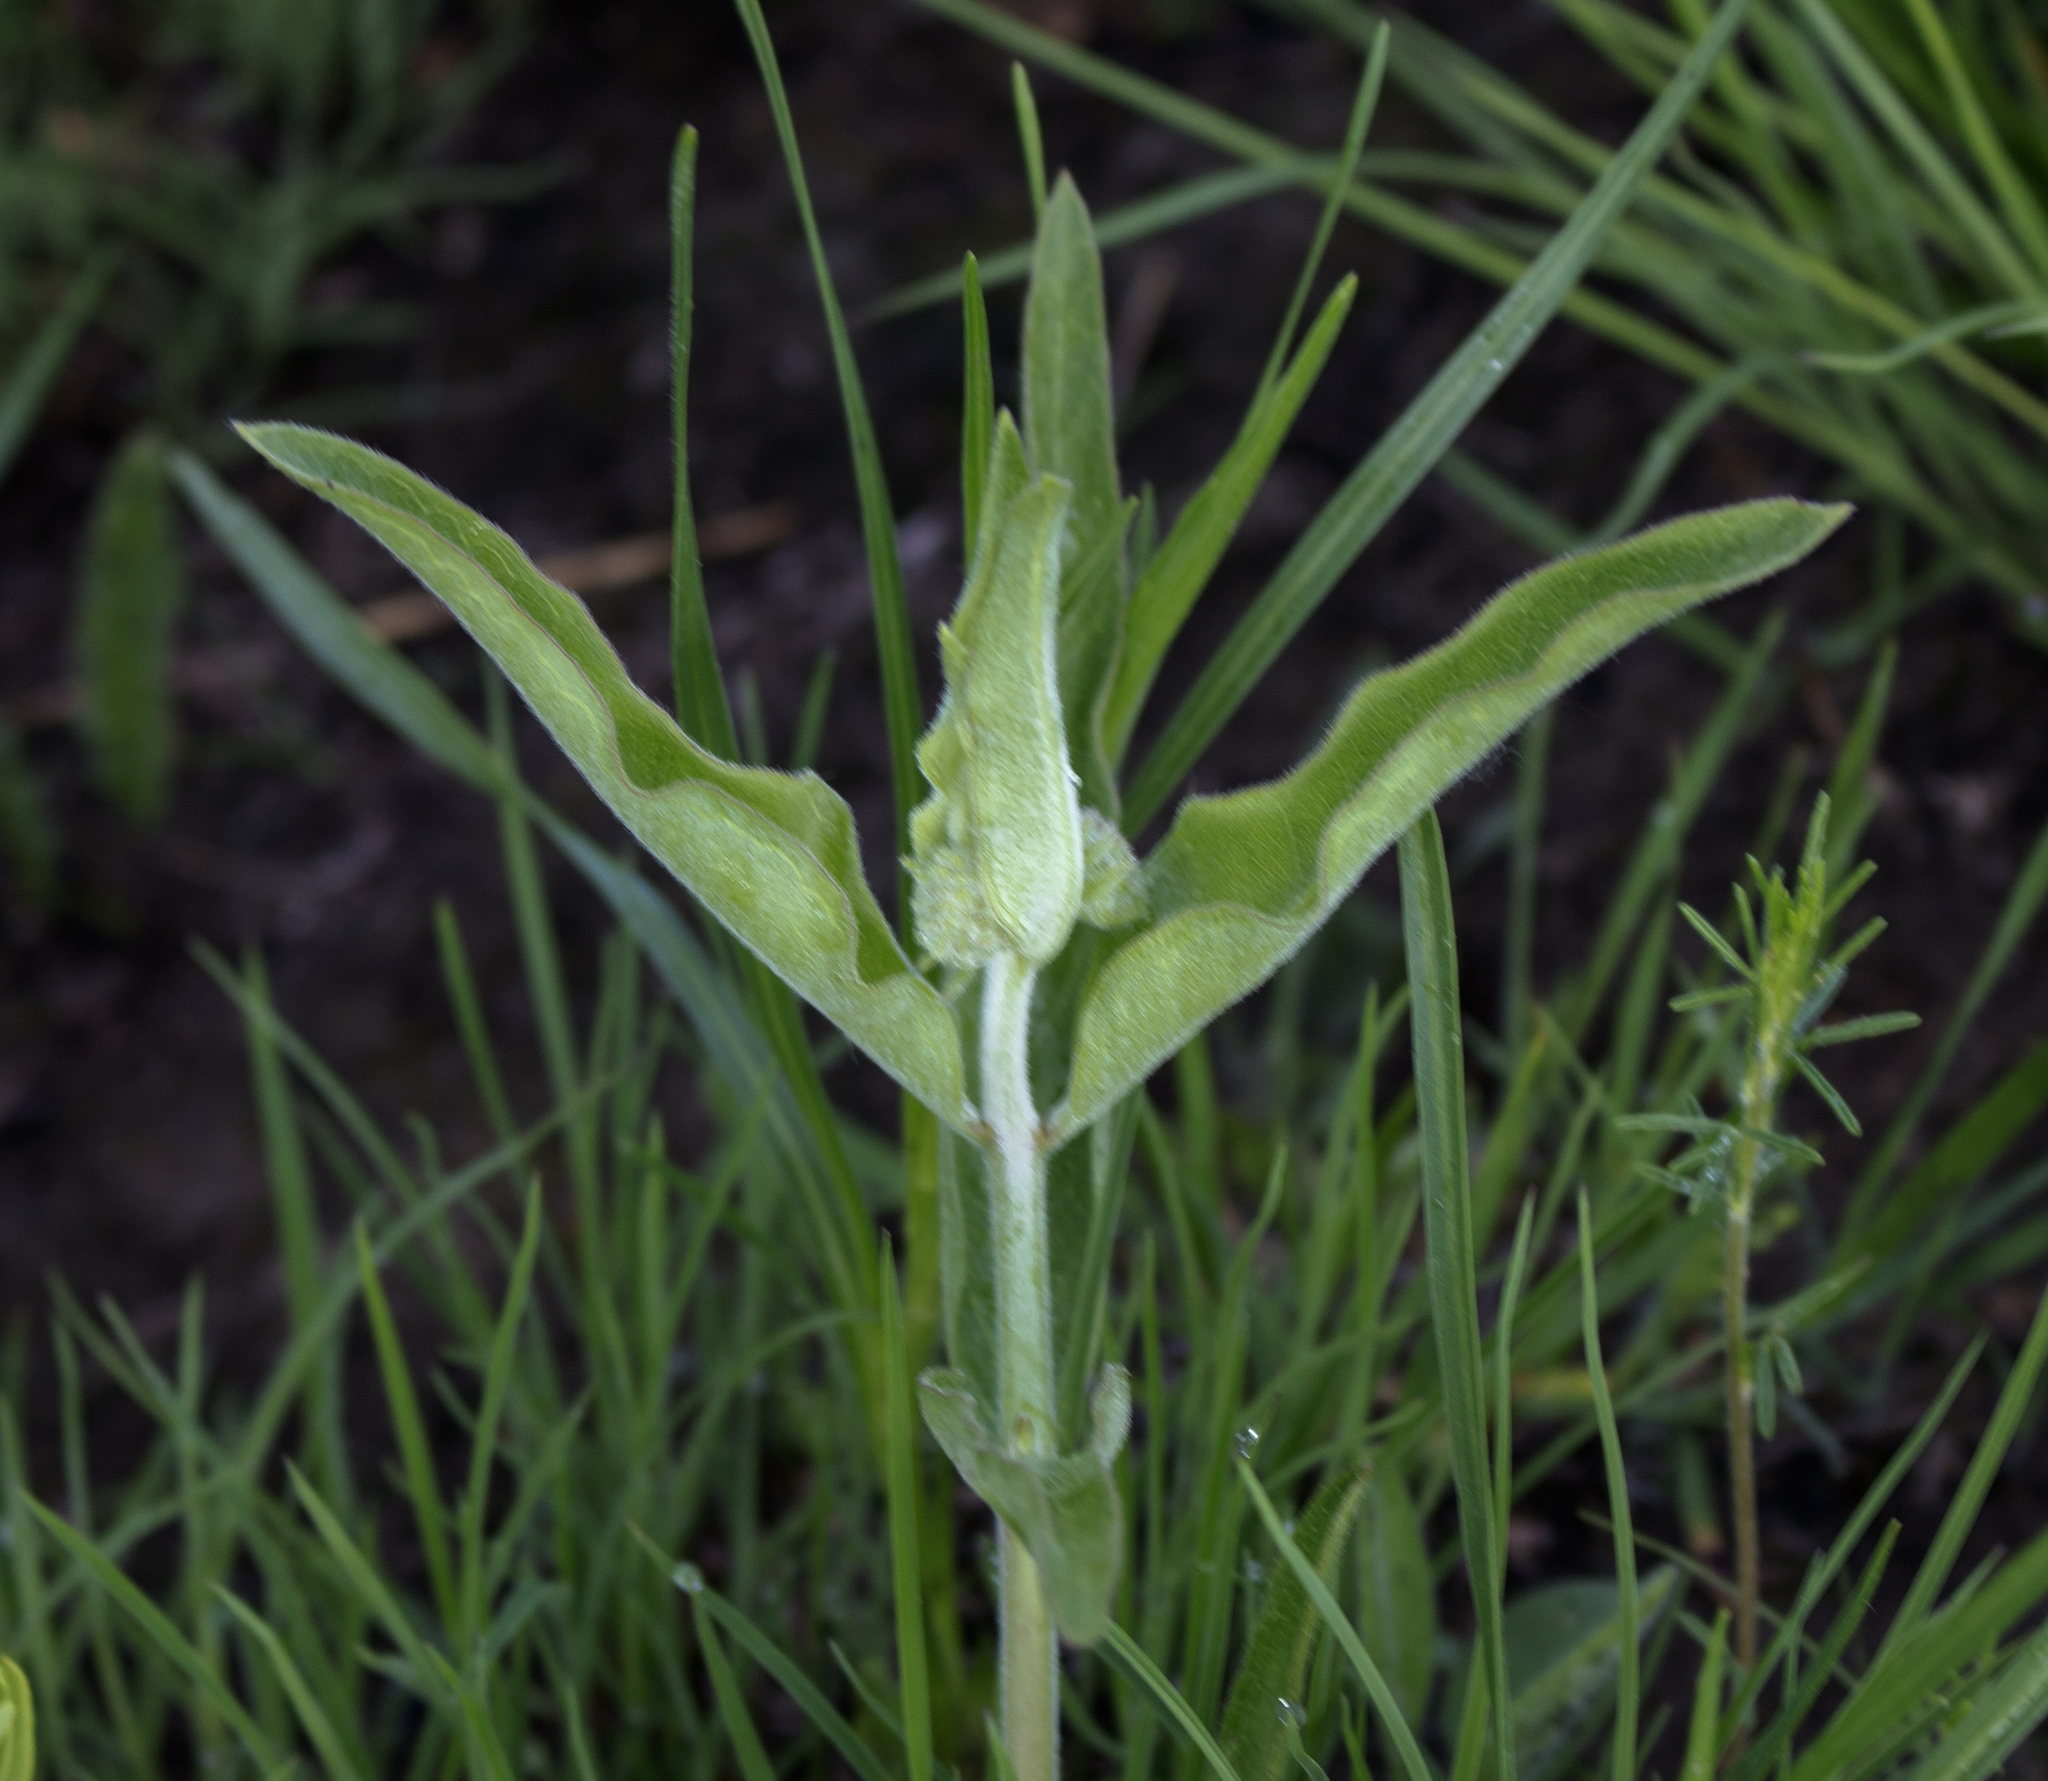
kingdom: Plantae
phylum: Tracheophyta
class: Magnoliopsida
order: Gentianales
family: Apocynaceae
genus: Asclepias
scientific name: Asclepias viridiflora
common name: Green comet milkweed
